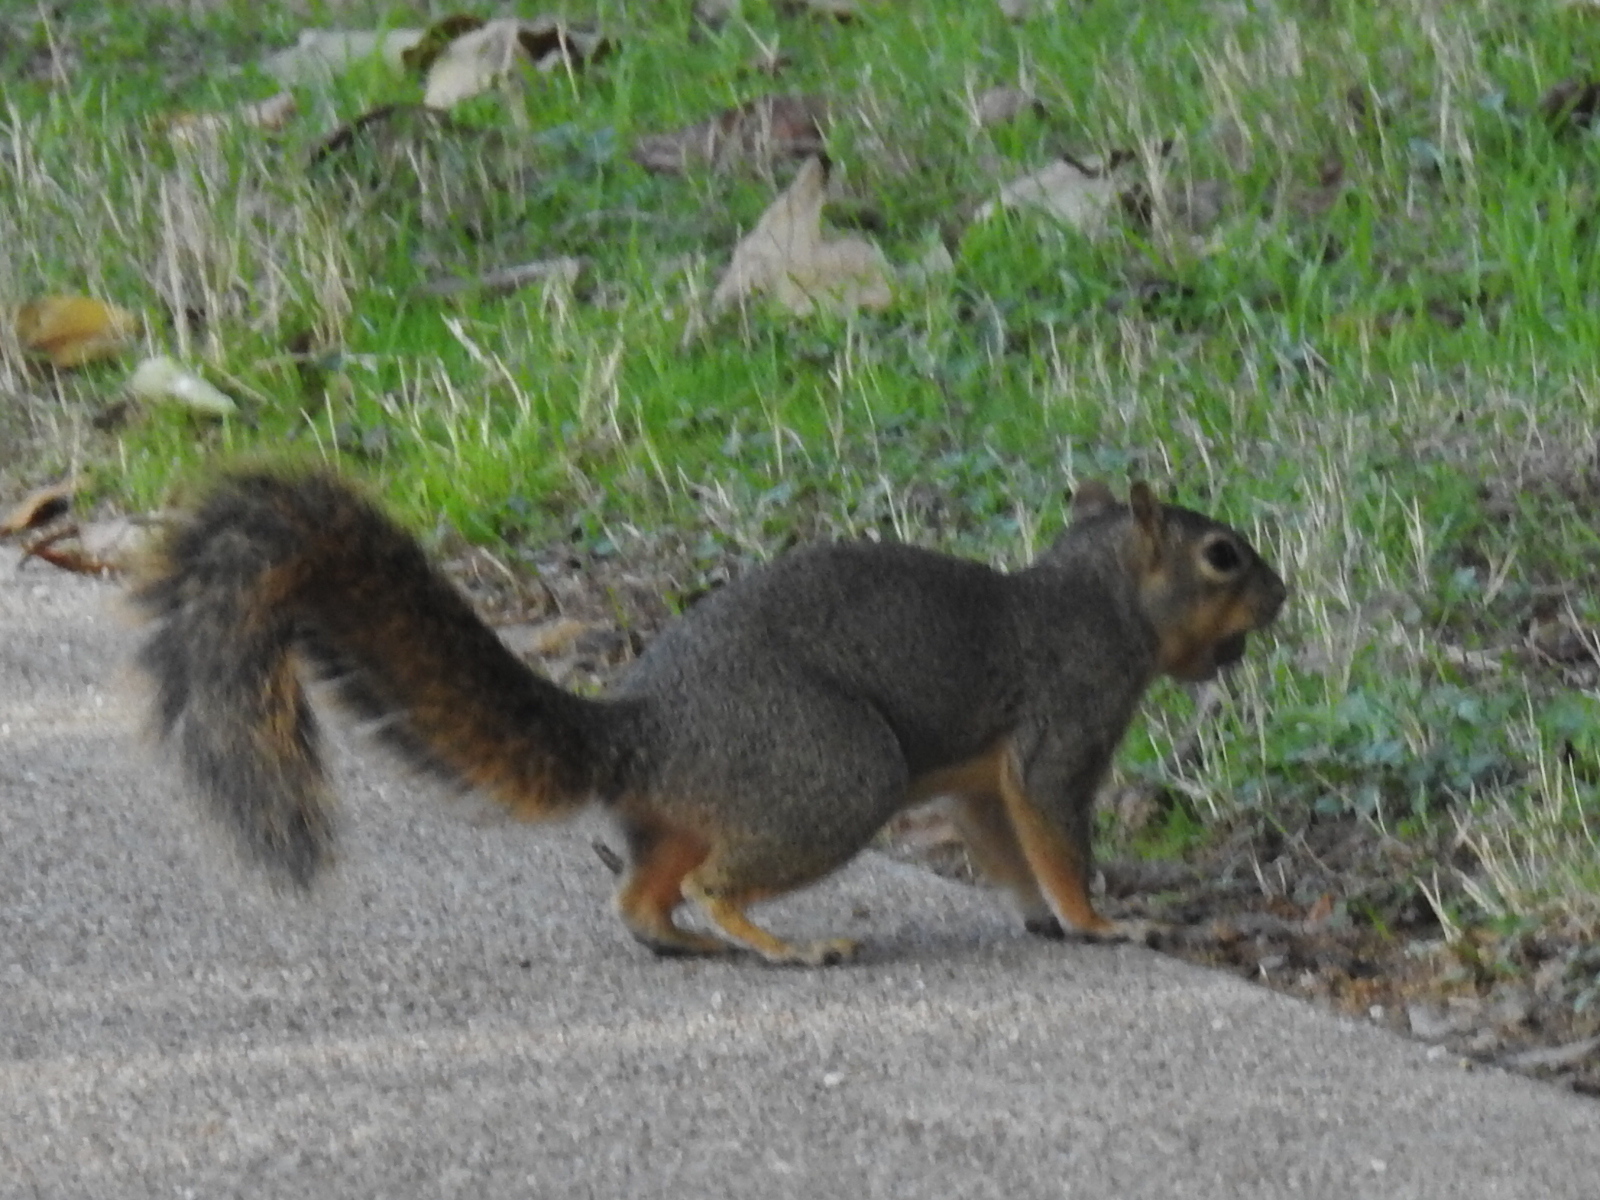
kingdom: Animalia
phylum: Chordata
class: Mammalia
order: Rodentia
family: Sciuridae
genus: Sciurus
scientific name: Sciurus niger
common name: Fox squirrel
